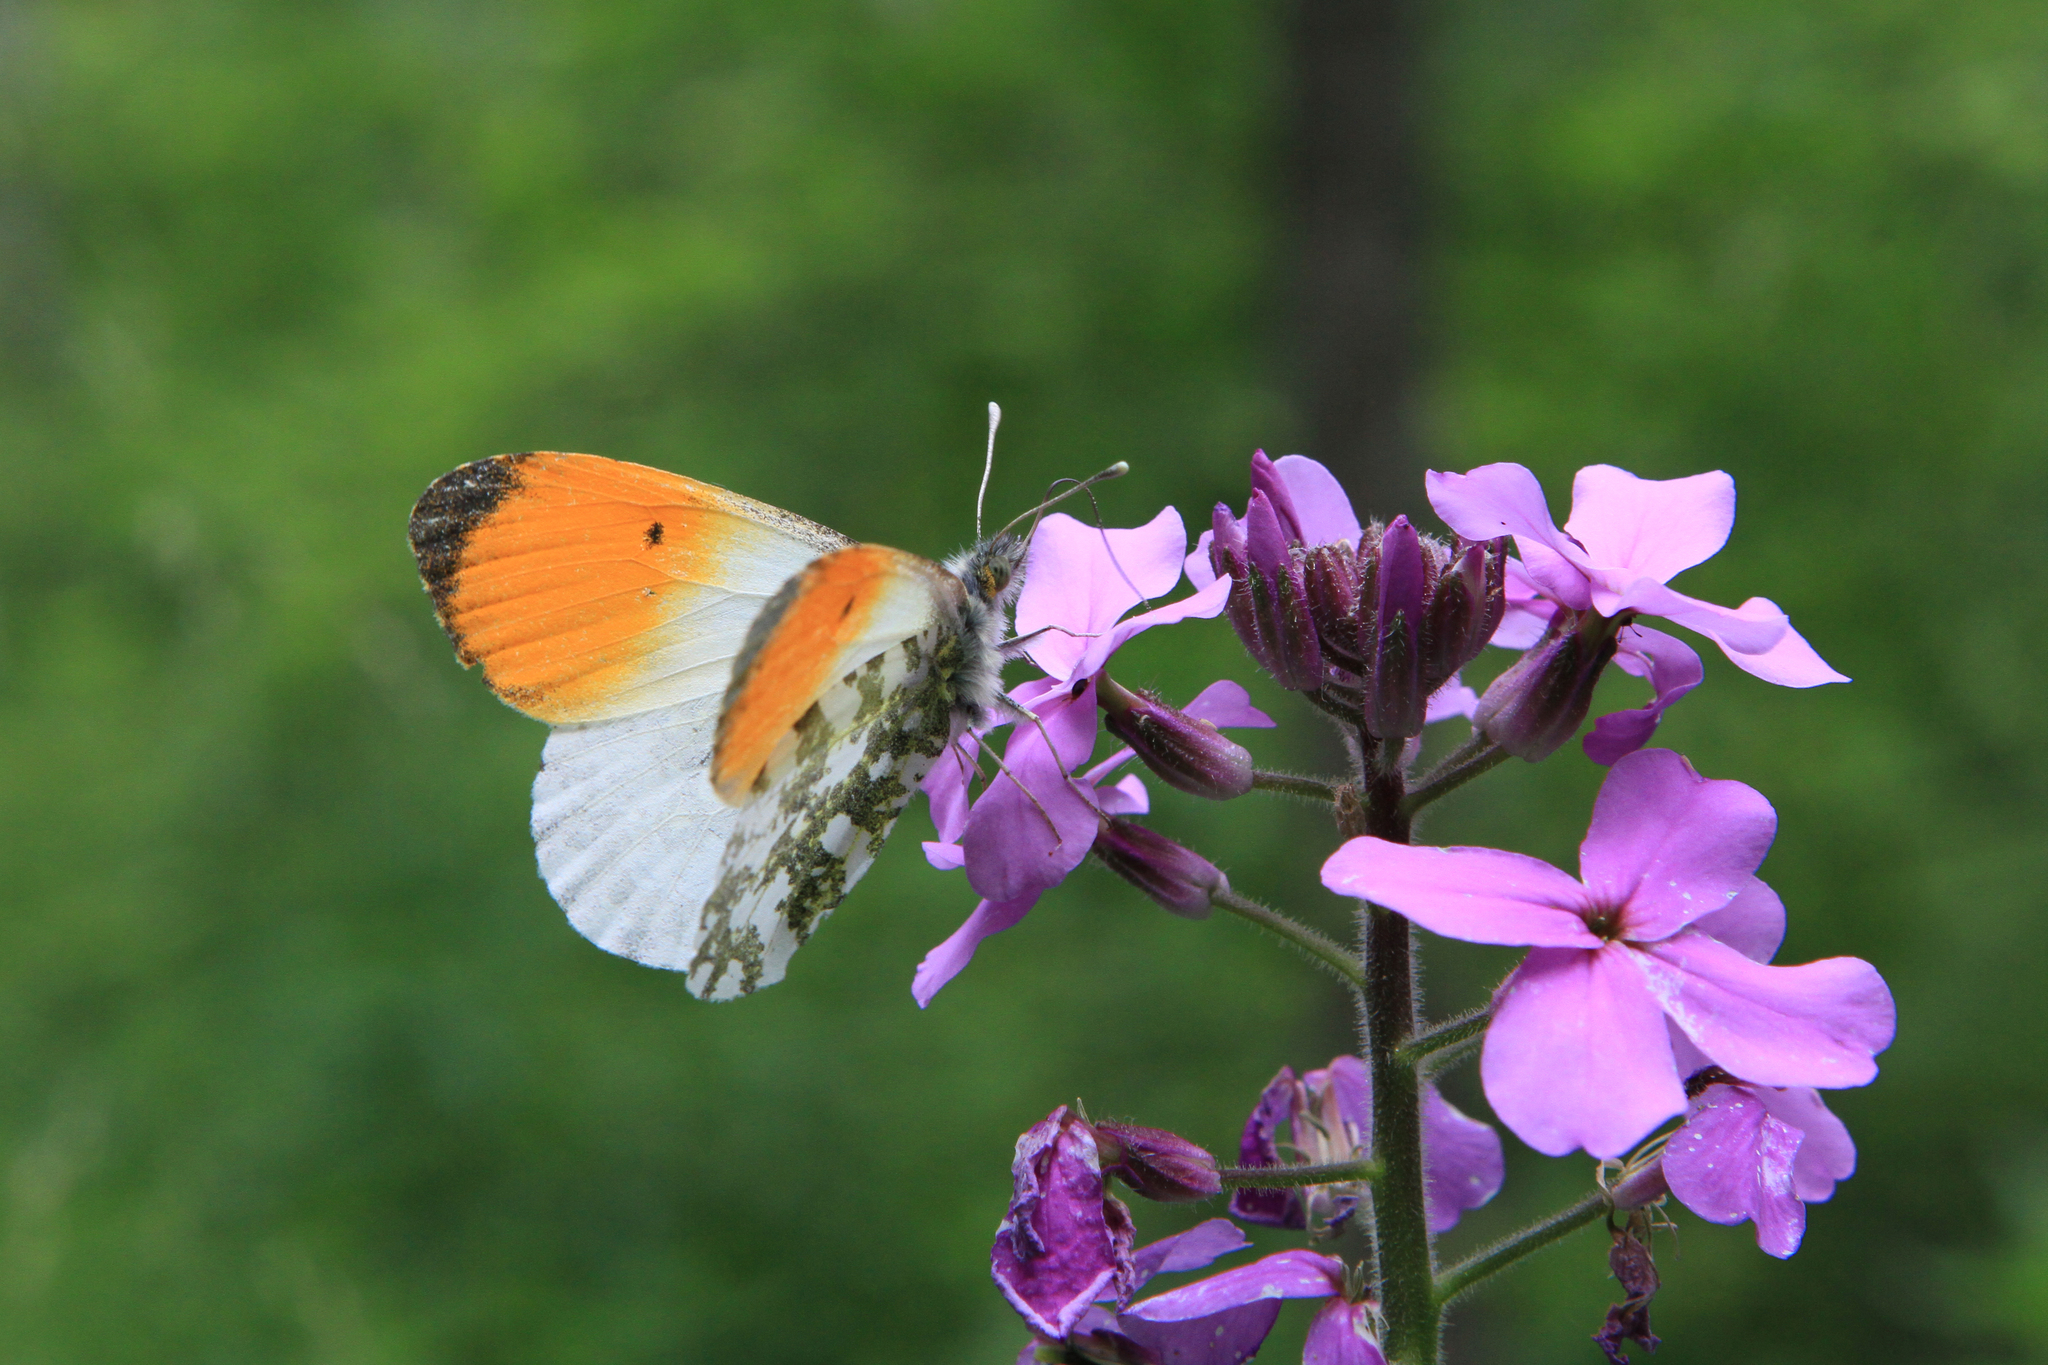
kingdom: Animalia
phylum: Arthropoda
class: Insecta
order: Lepidoptera
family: Pieridae
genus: Anthocharis
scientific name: Anthocharis cardamines
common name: Orange-tip
